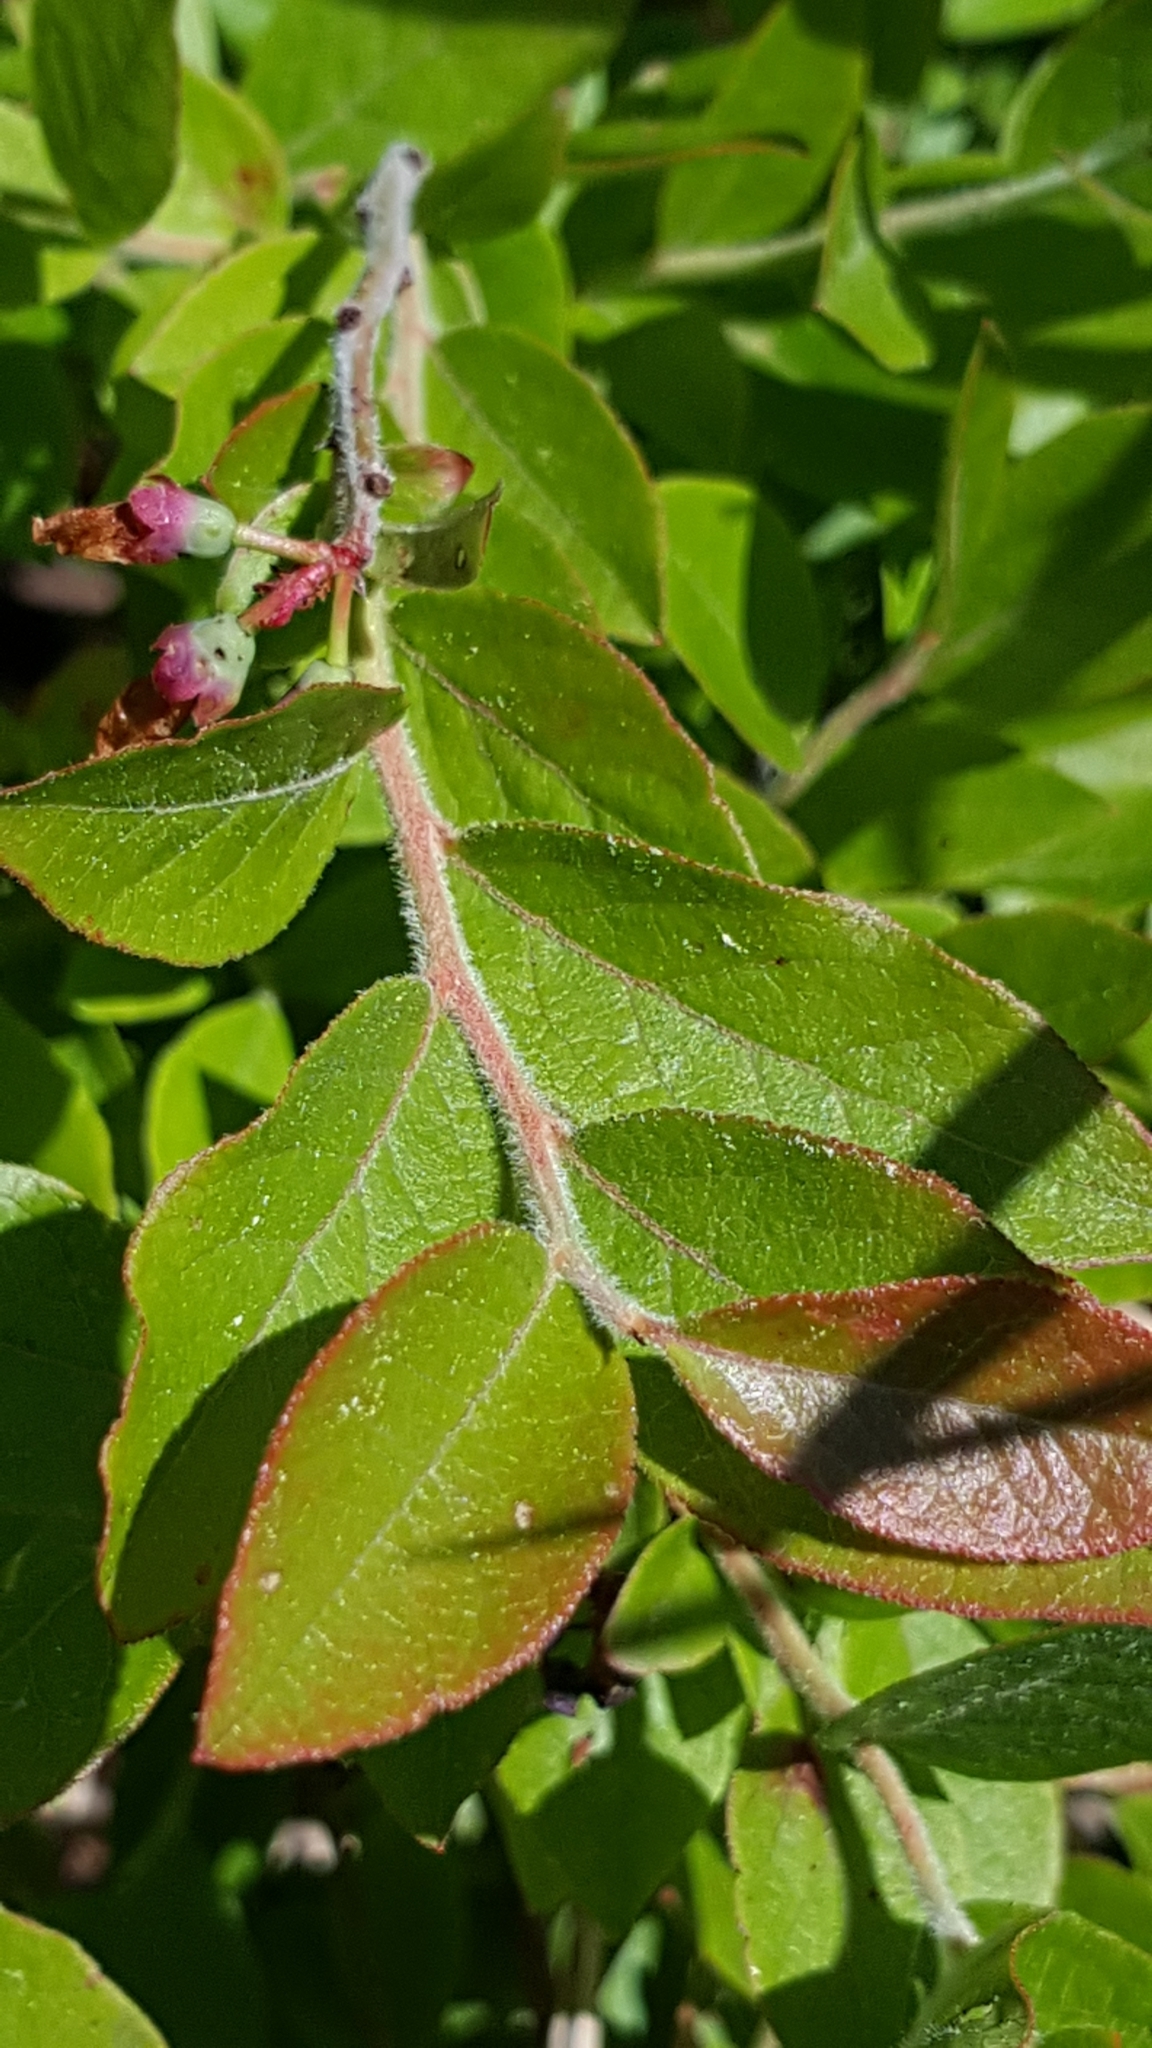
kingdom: Plantae
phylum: Tracheophyta
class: Magnoliopsida
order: Ericales
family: Ericaceae
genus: Vaccinium
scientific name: Vaccinium myrtilloides
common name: Canada blueberry
